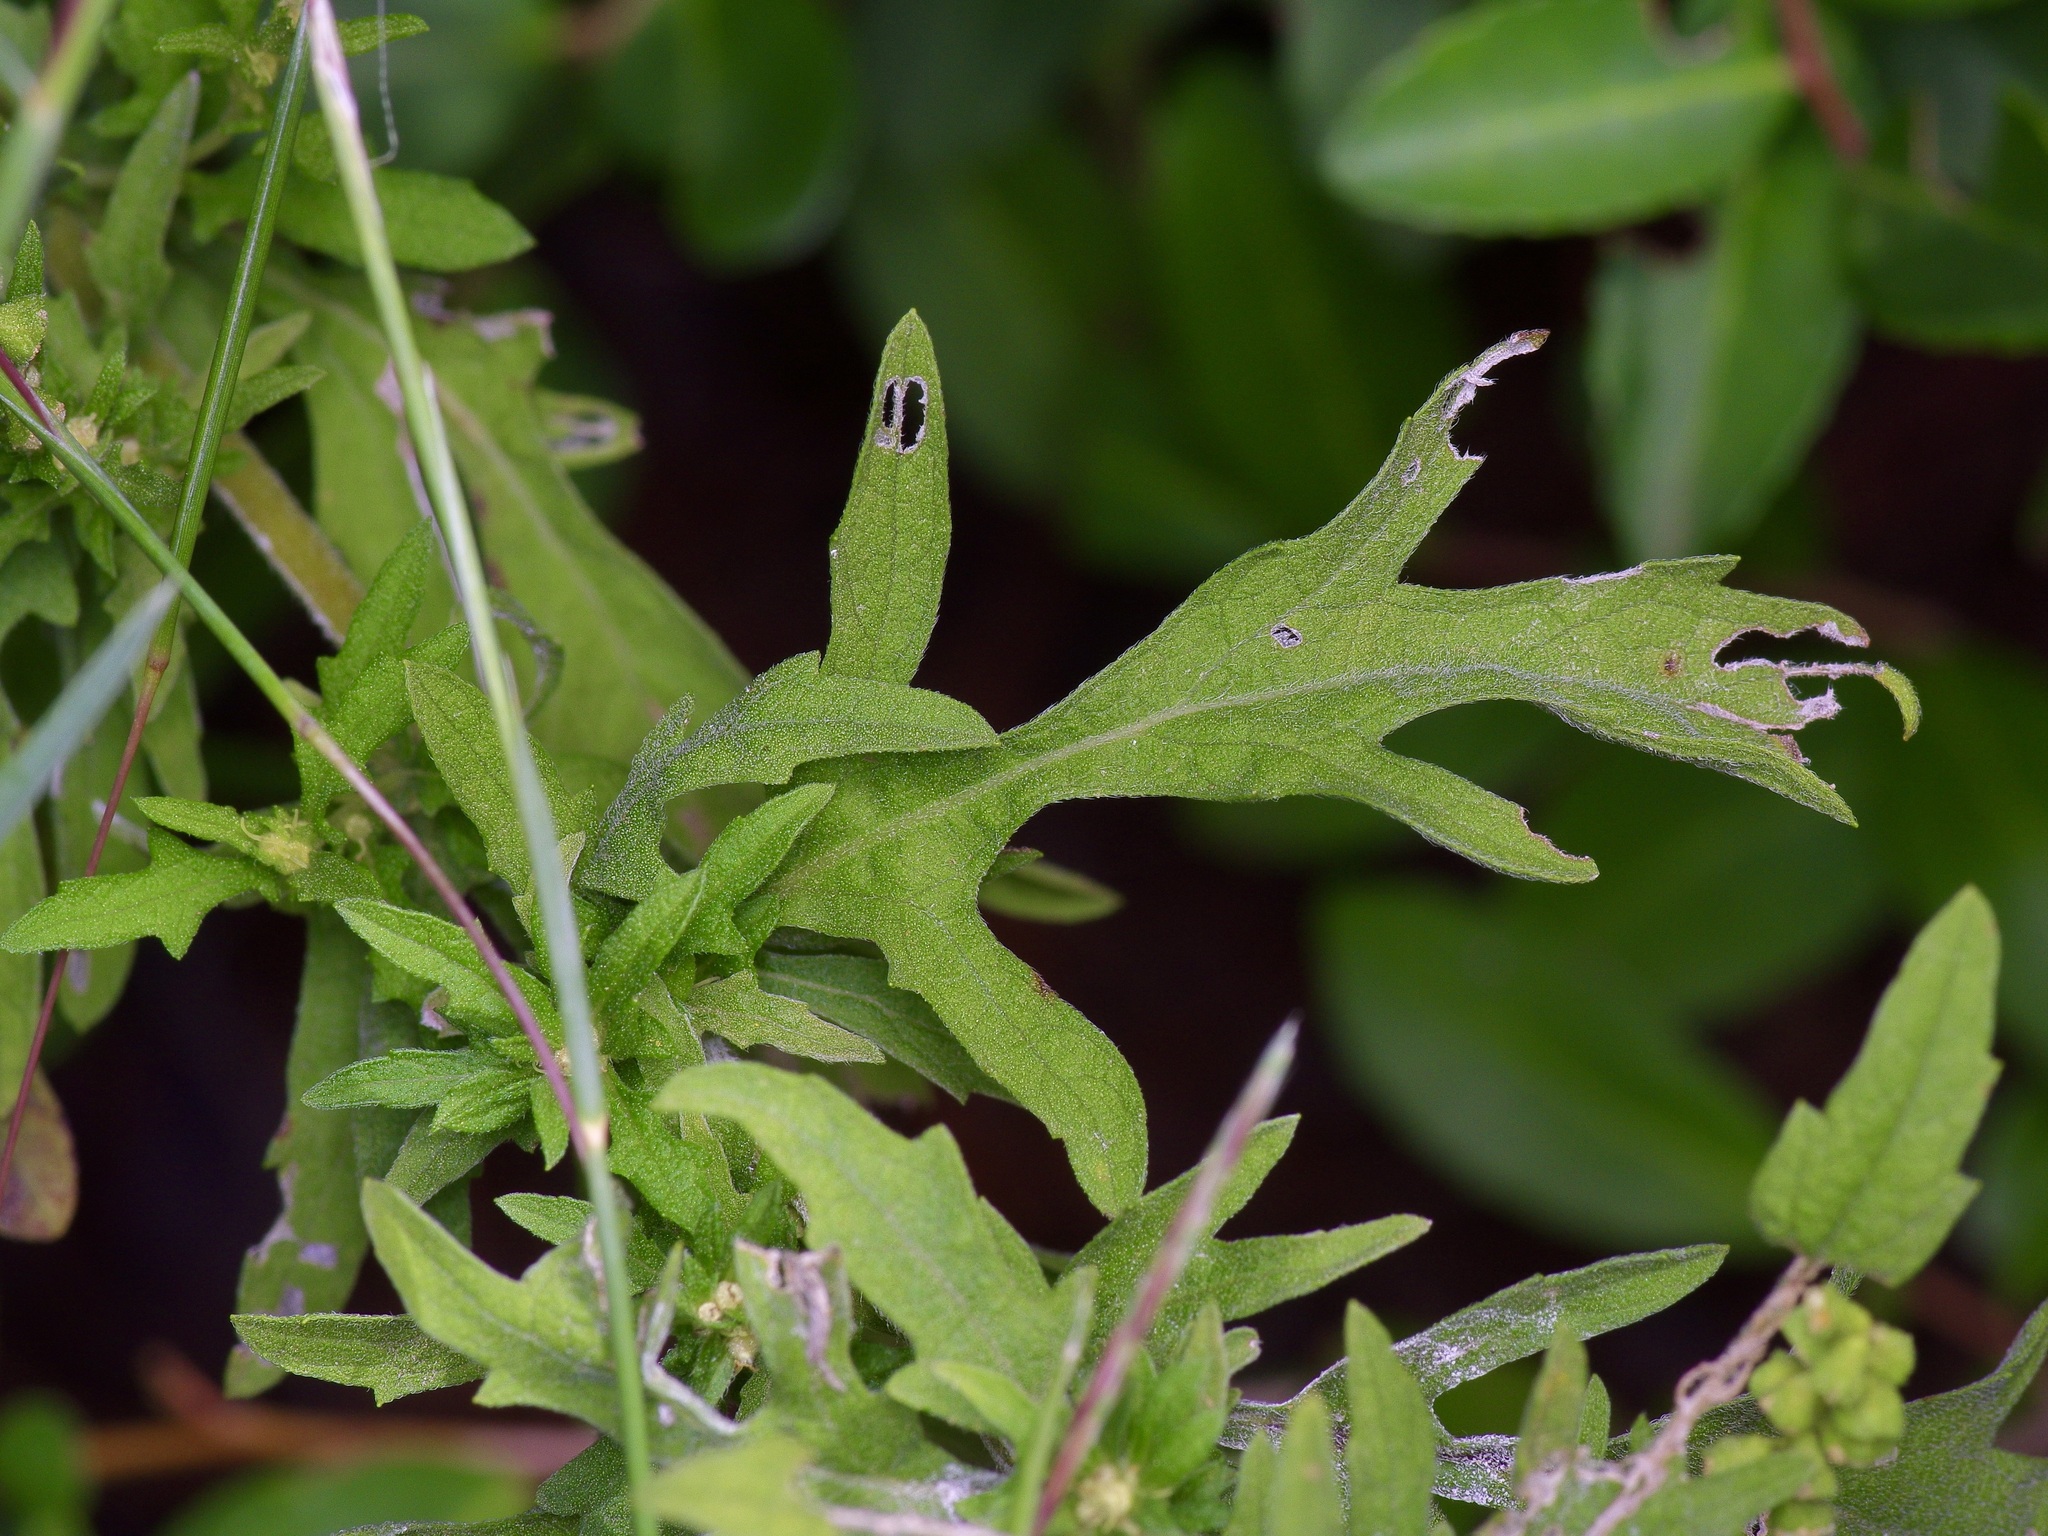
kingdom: Plantae
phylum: Tracheophyta
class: Magnoliopsida
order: Asterales
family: Asteraceae
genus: Ambrosia
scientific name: Ambrosia psilostachya
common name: Perennial ragweed
